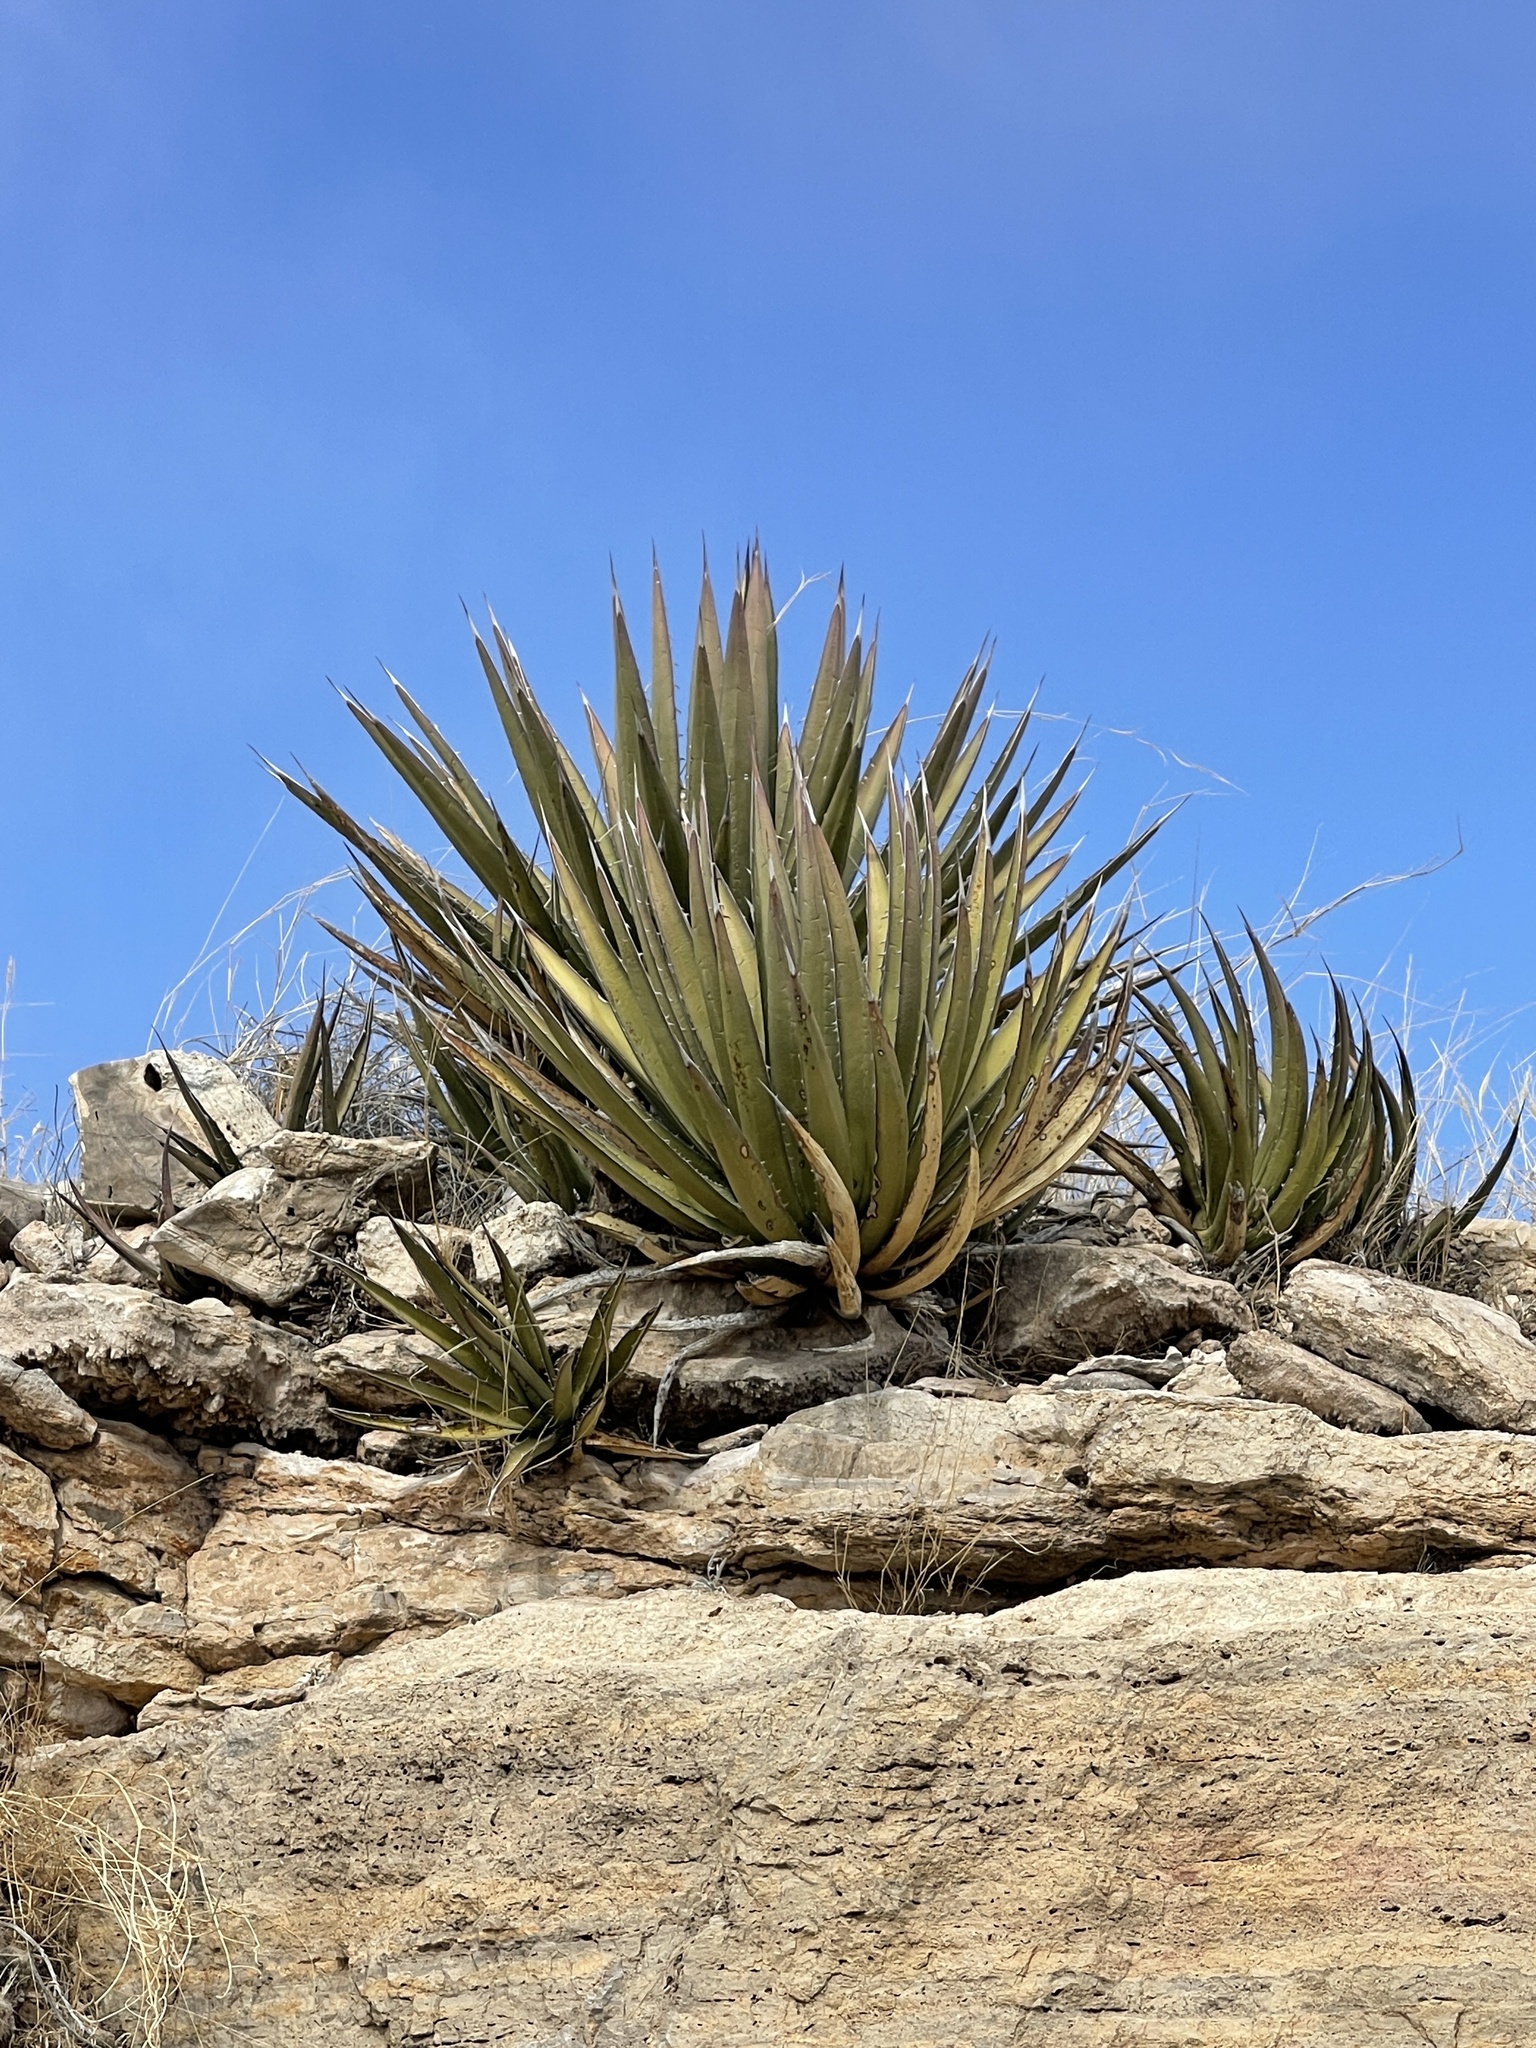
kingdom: Plantae
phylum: Tracheophyta
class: Liliopsida
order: Asparagales
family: Asparagaceae
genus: Agave
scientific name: Agave lechuguilla
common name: Lecheguilla agave
